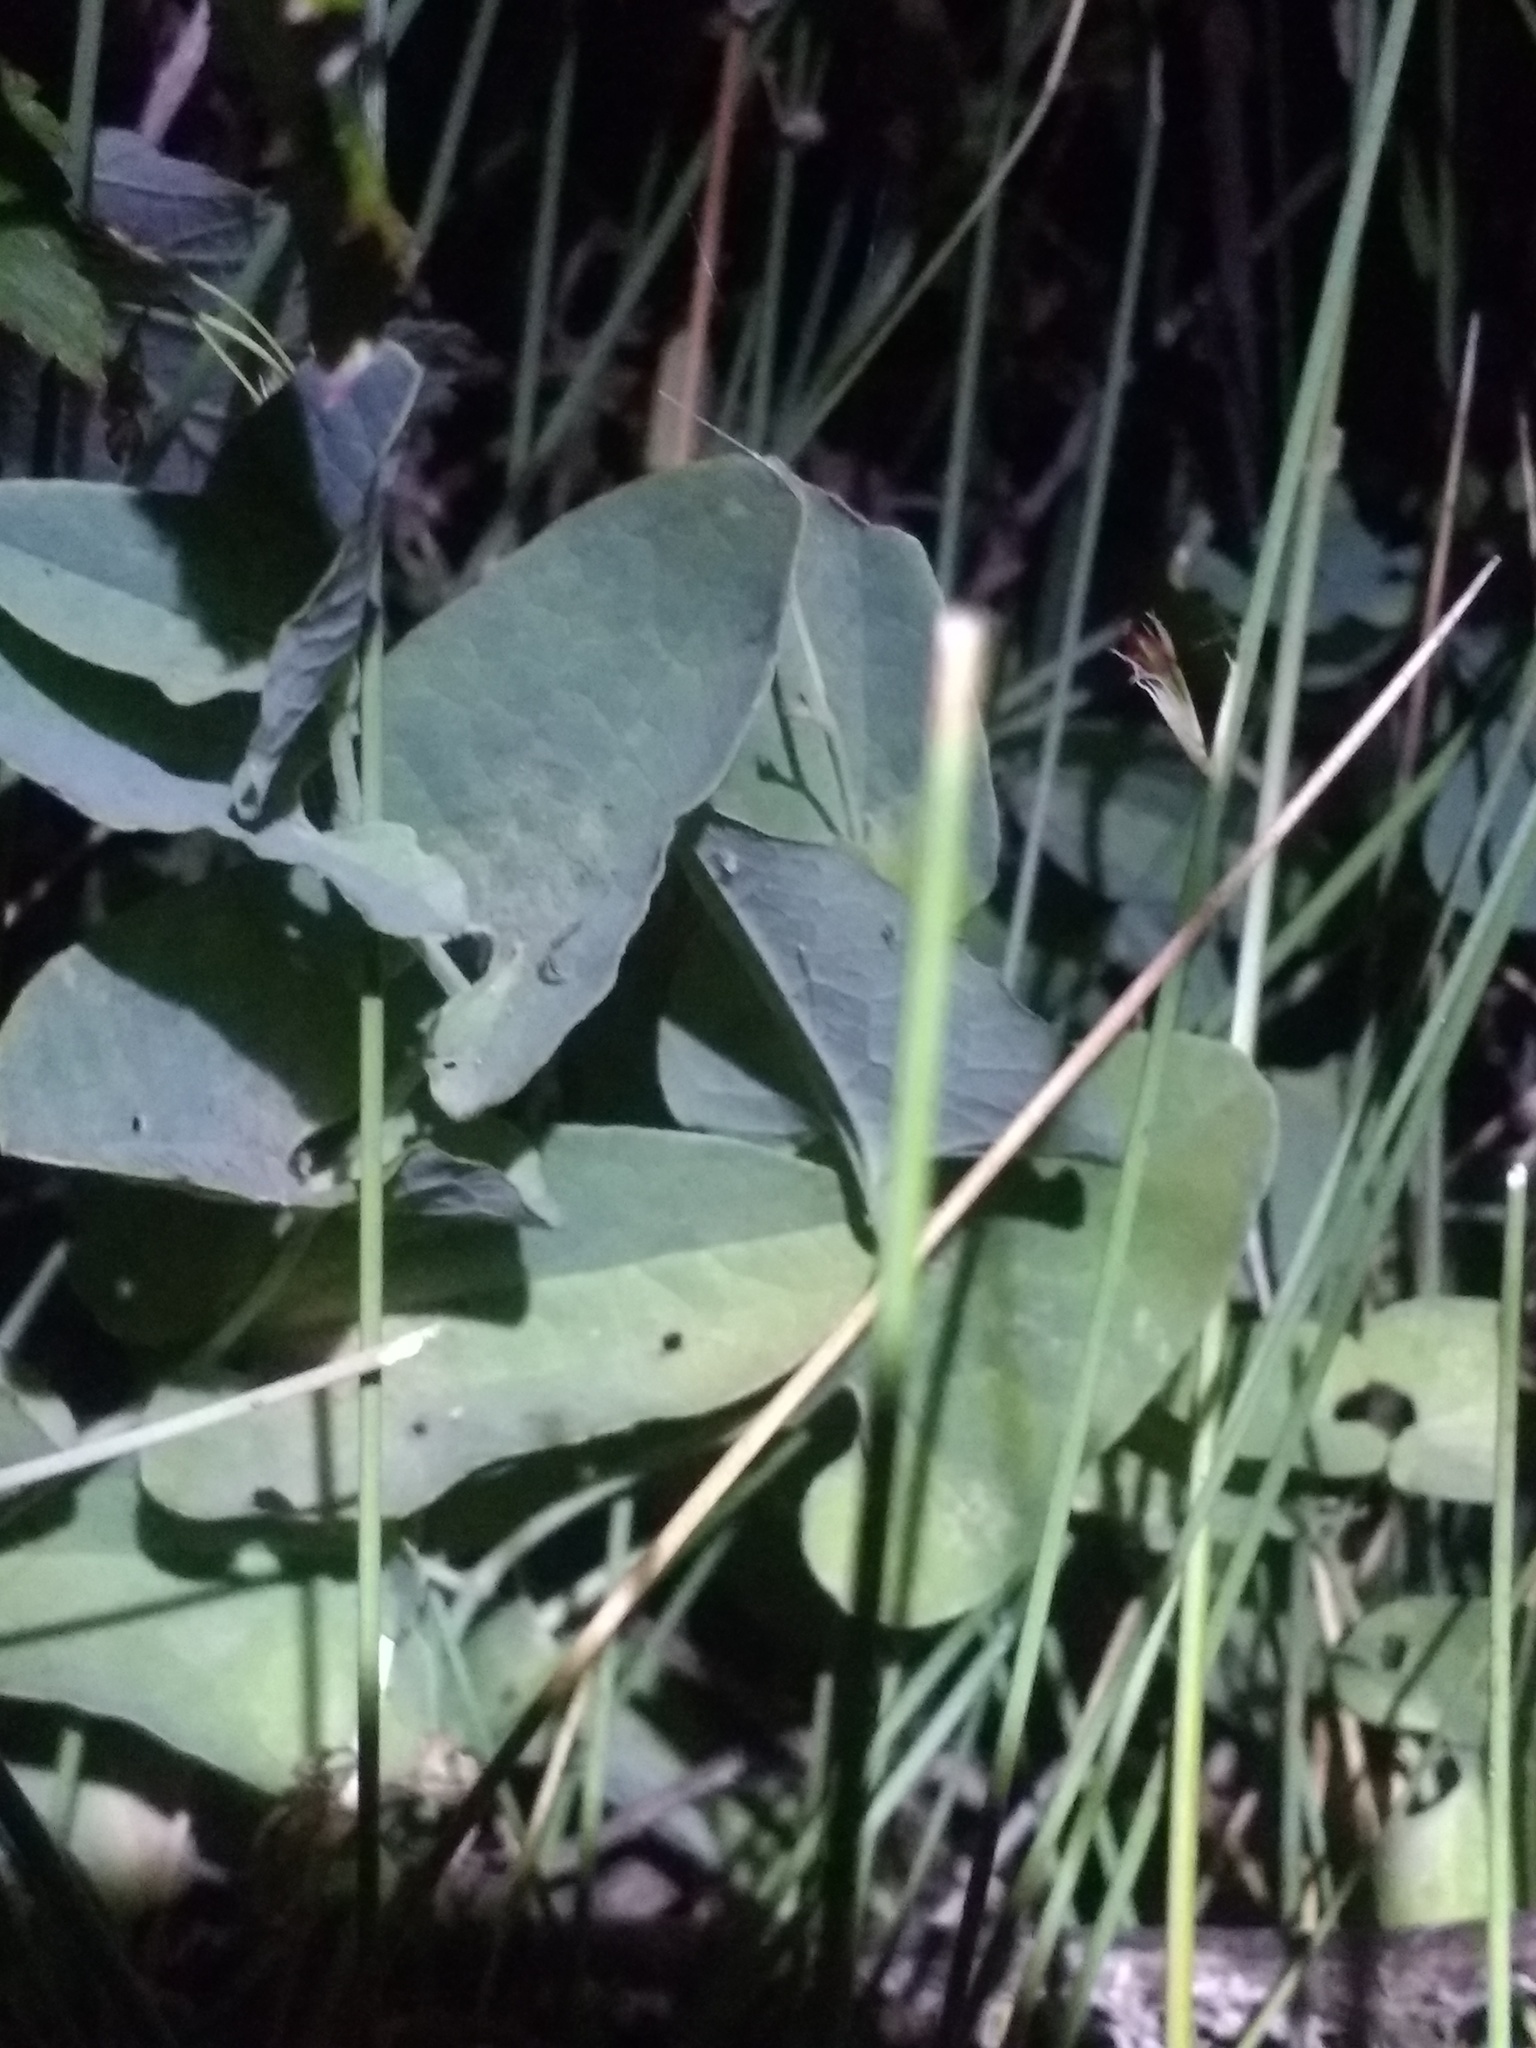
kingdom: Plantae
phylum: Tracheophyta
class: Magnoliopsida
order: Piperales
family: Aristolochiaceae
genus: Aristolochia
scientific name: Aristolochia paucinervis
